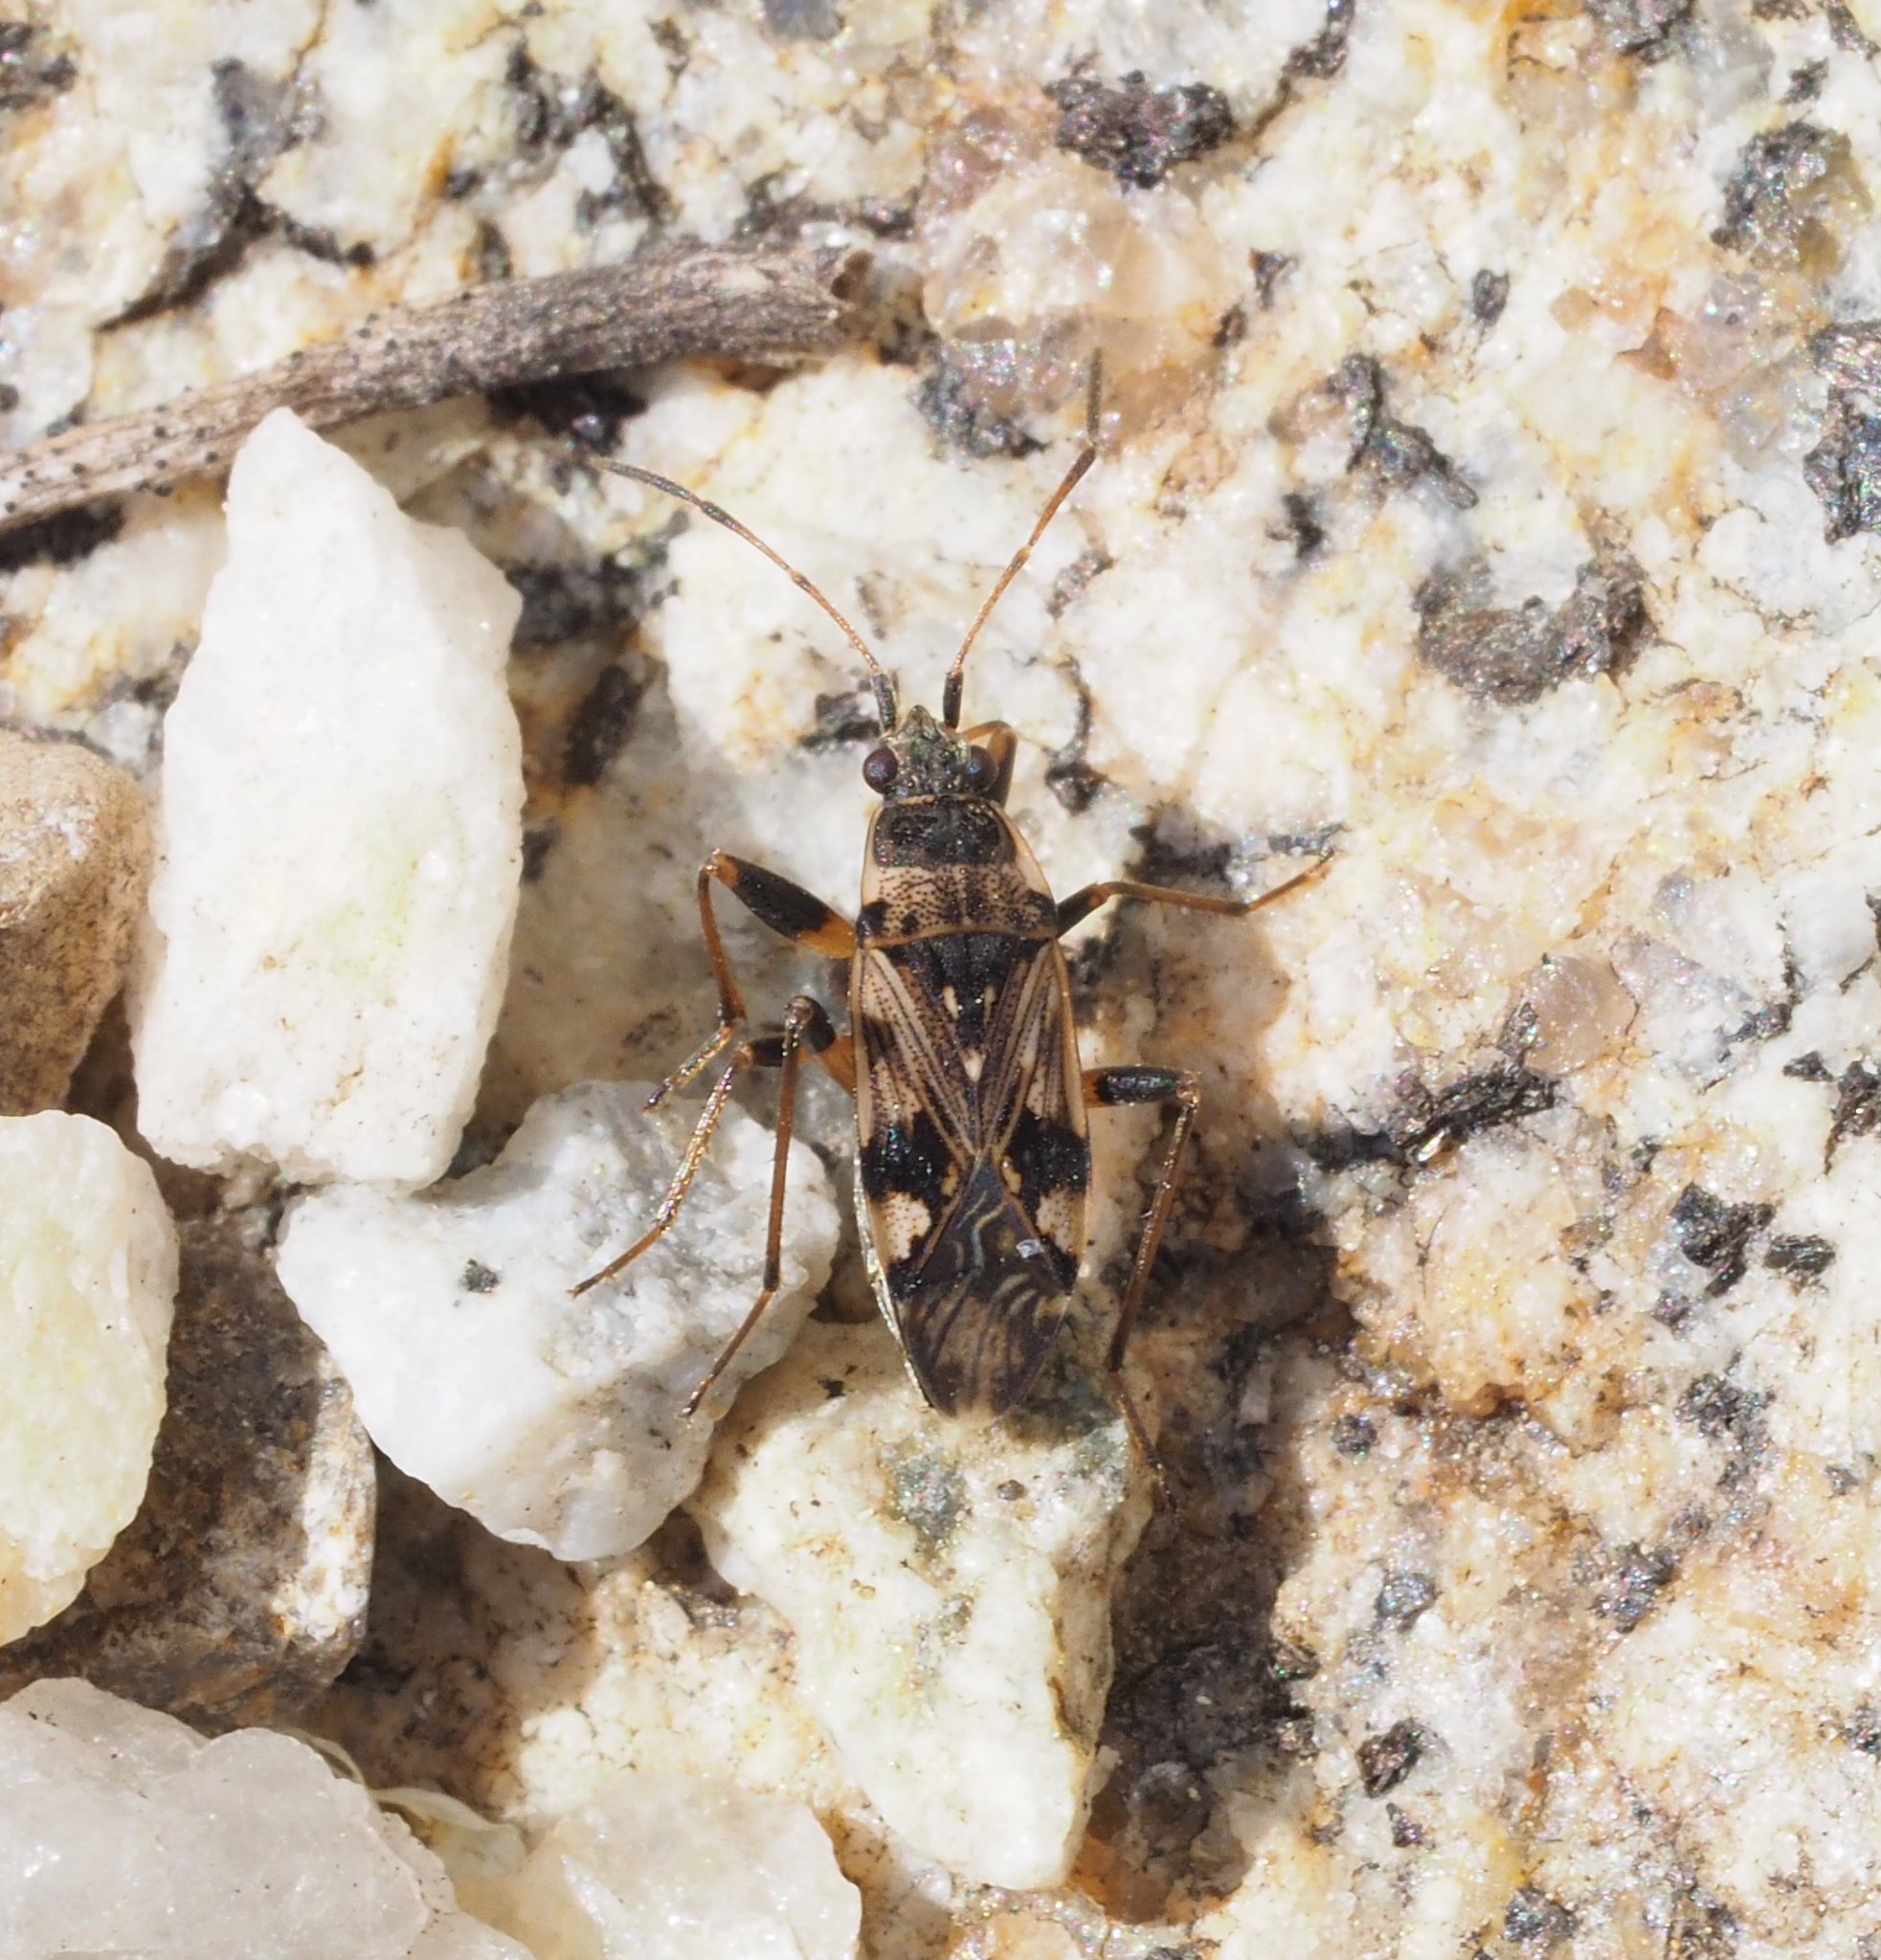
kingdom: Animalia
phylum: Arthropoda
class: Insecta
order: Hemiptera
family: Rhyparochromidae
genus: Beosus
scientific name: Beosus maritimus
